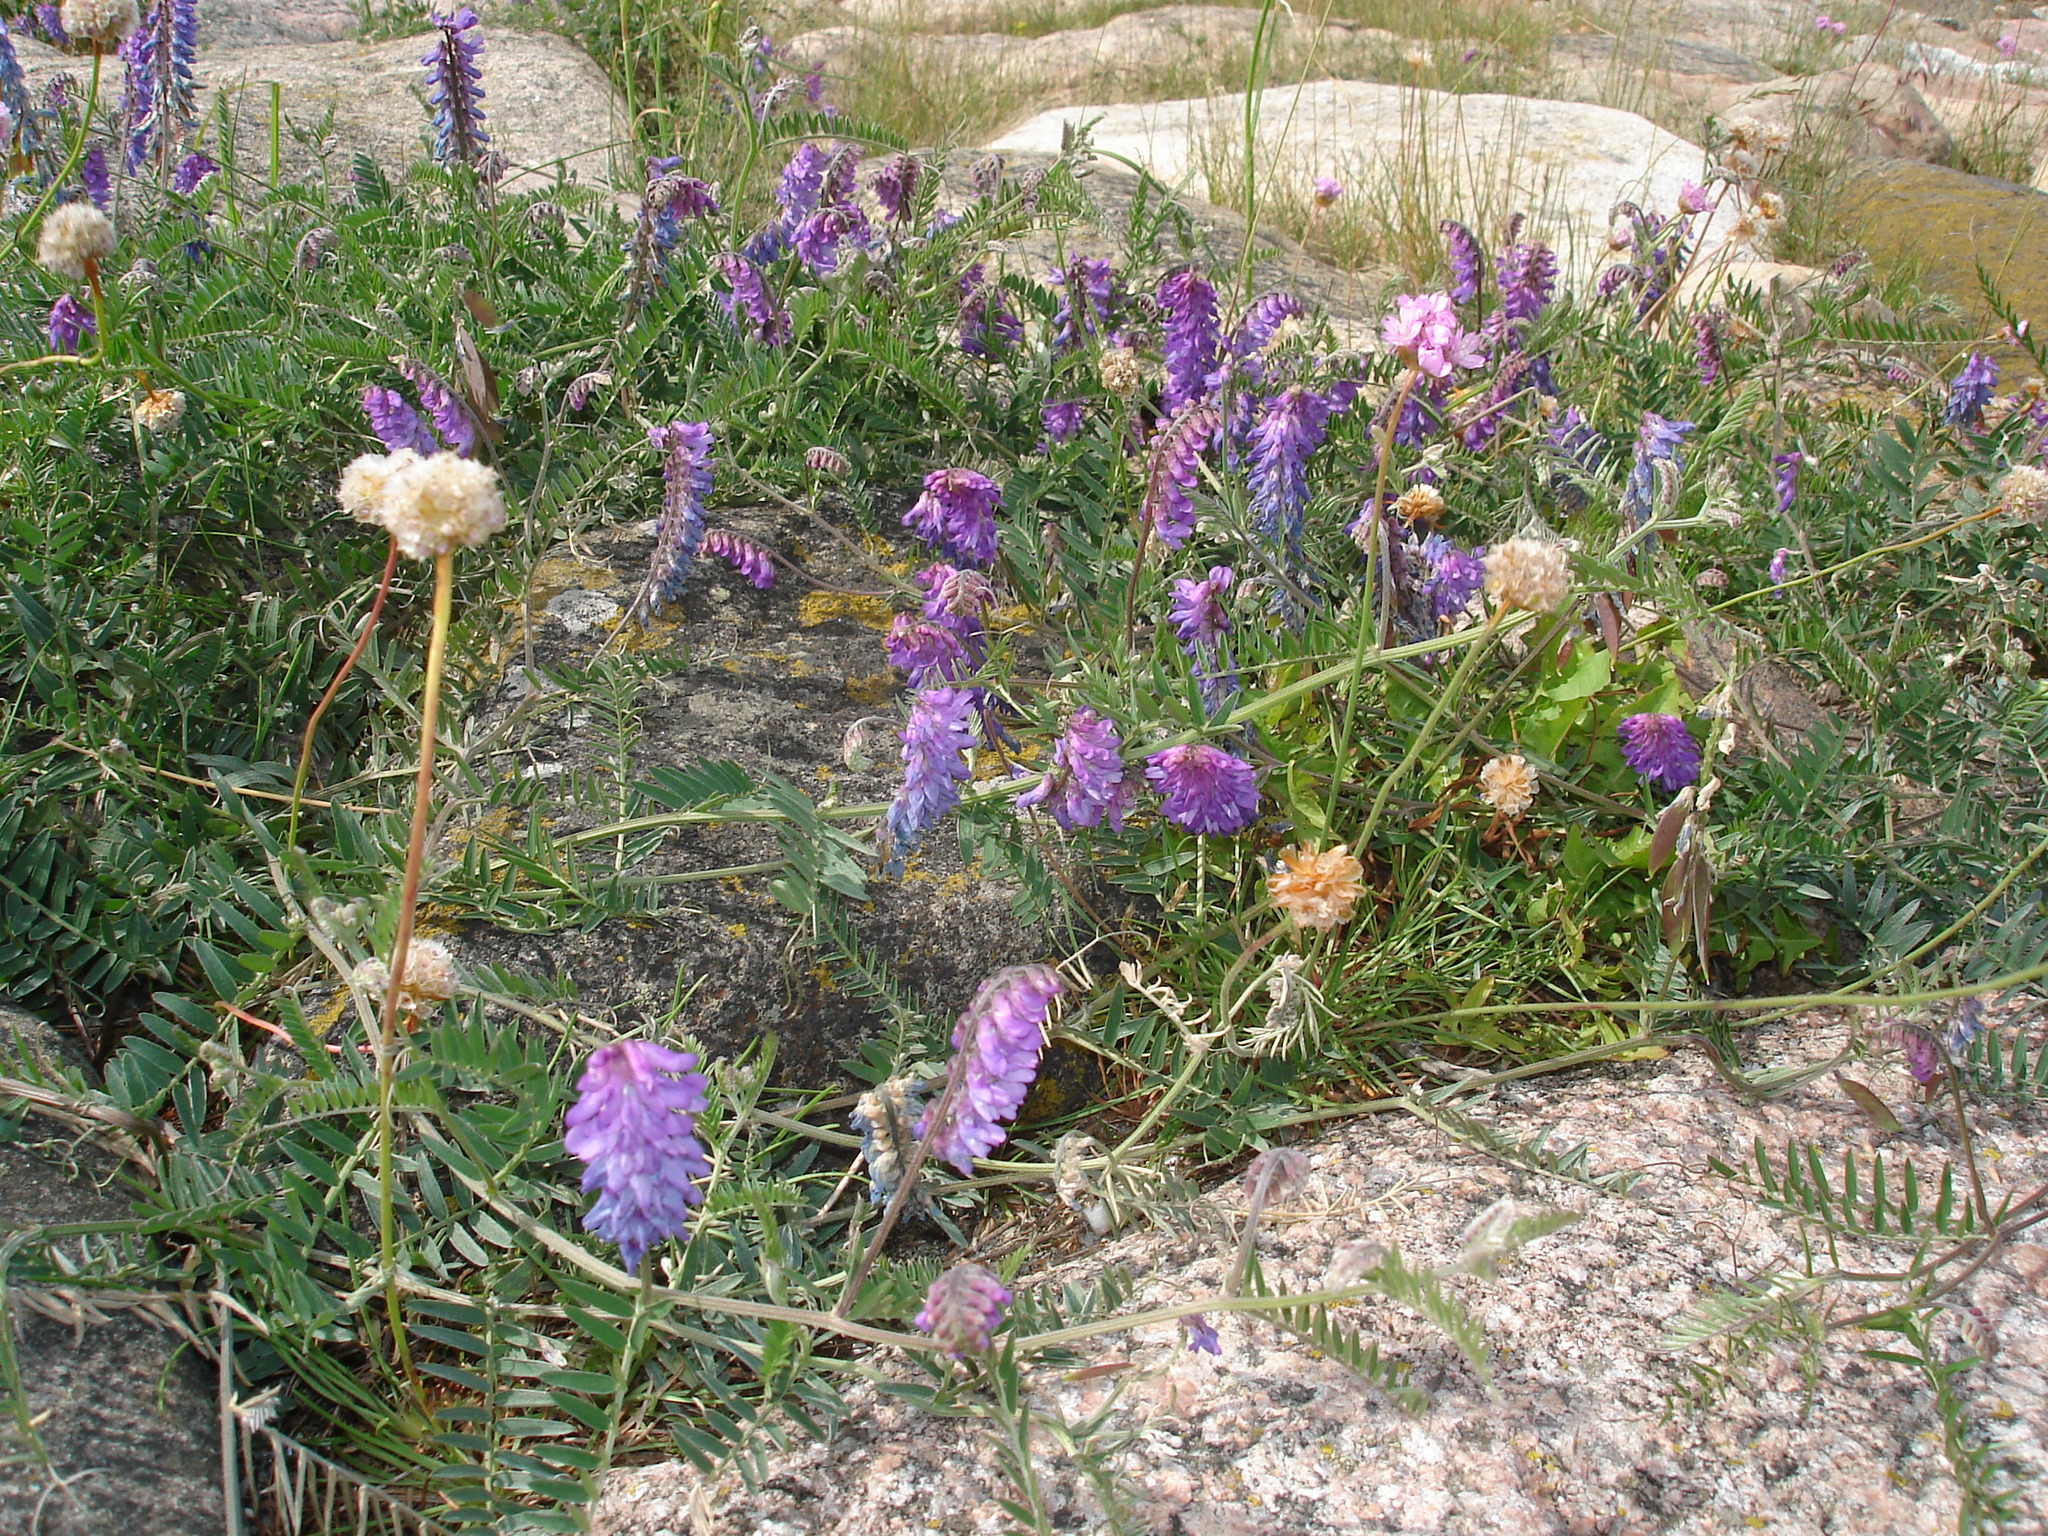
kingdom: Plantae
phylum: Tracheophyta
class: Magnoliopsida
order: Fabales
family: Fabaceae
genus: Vicia
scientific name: Vicia cracca
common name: Bird vetch
